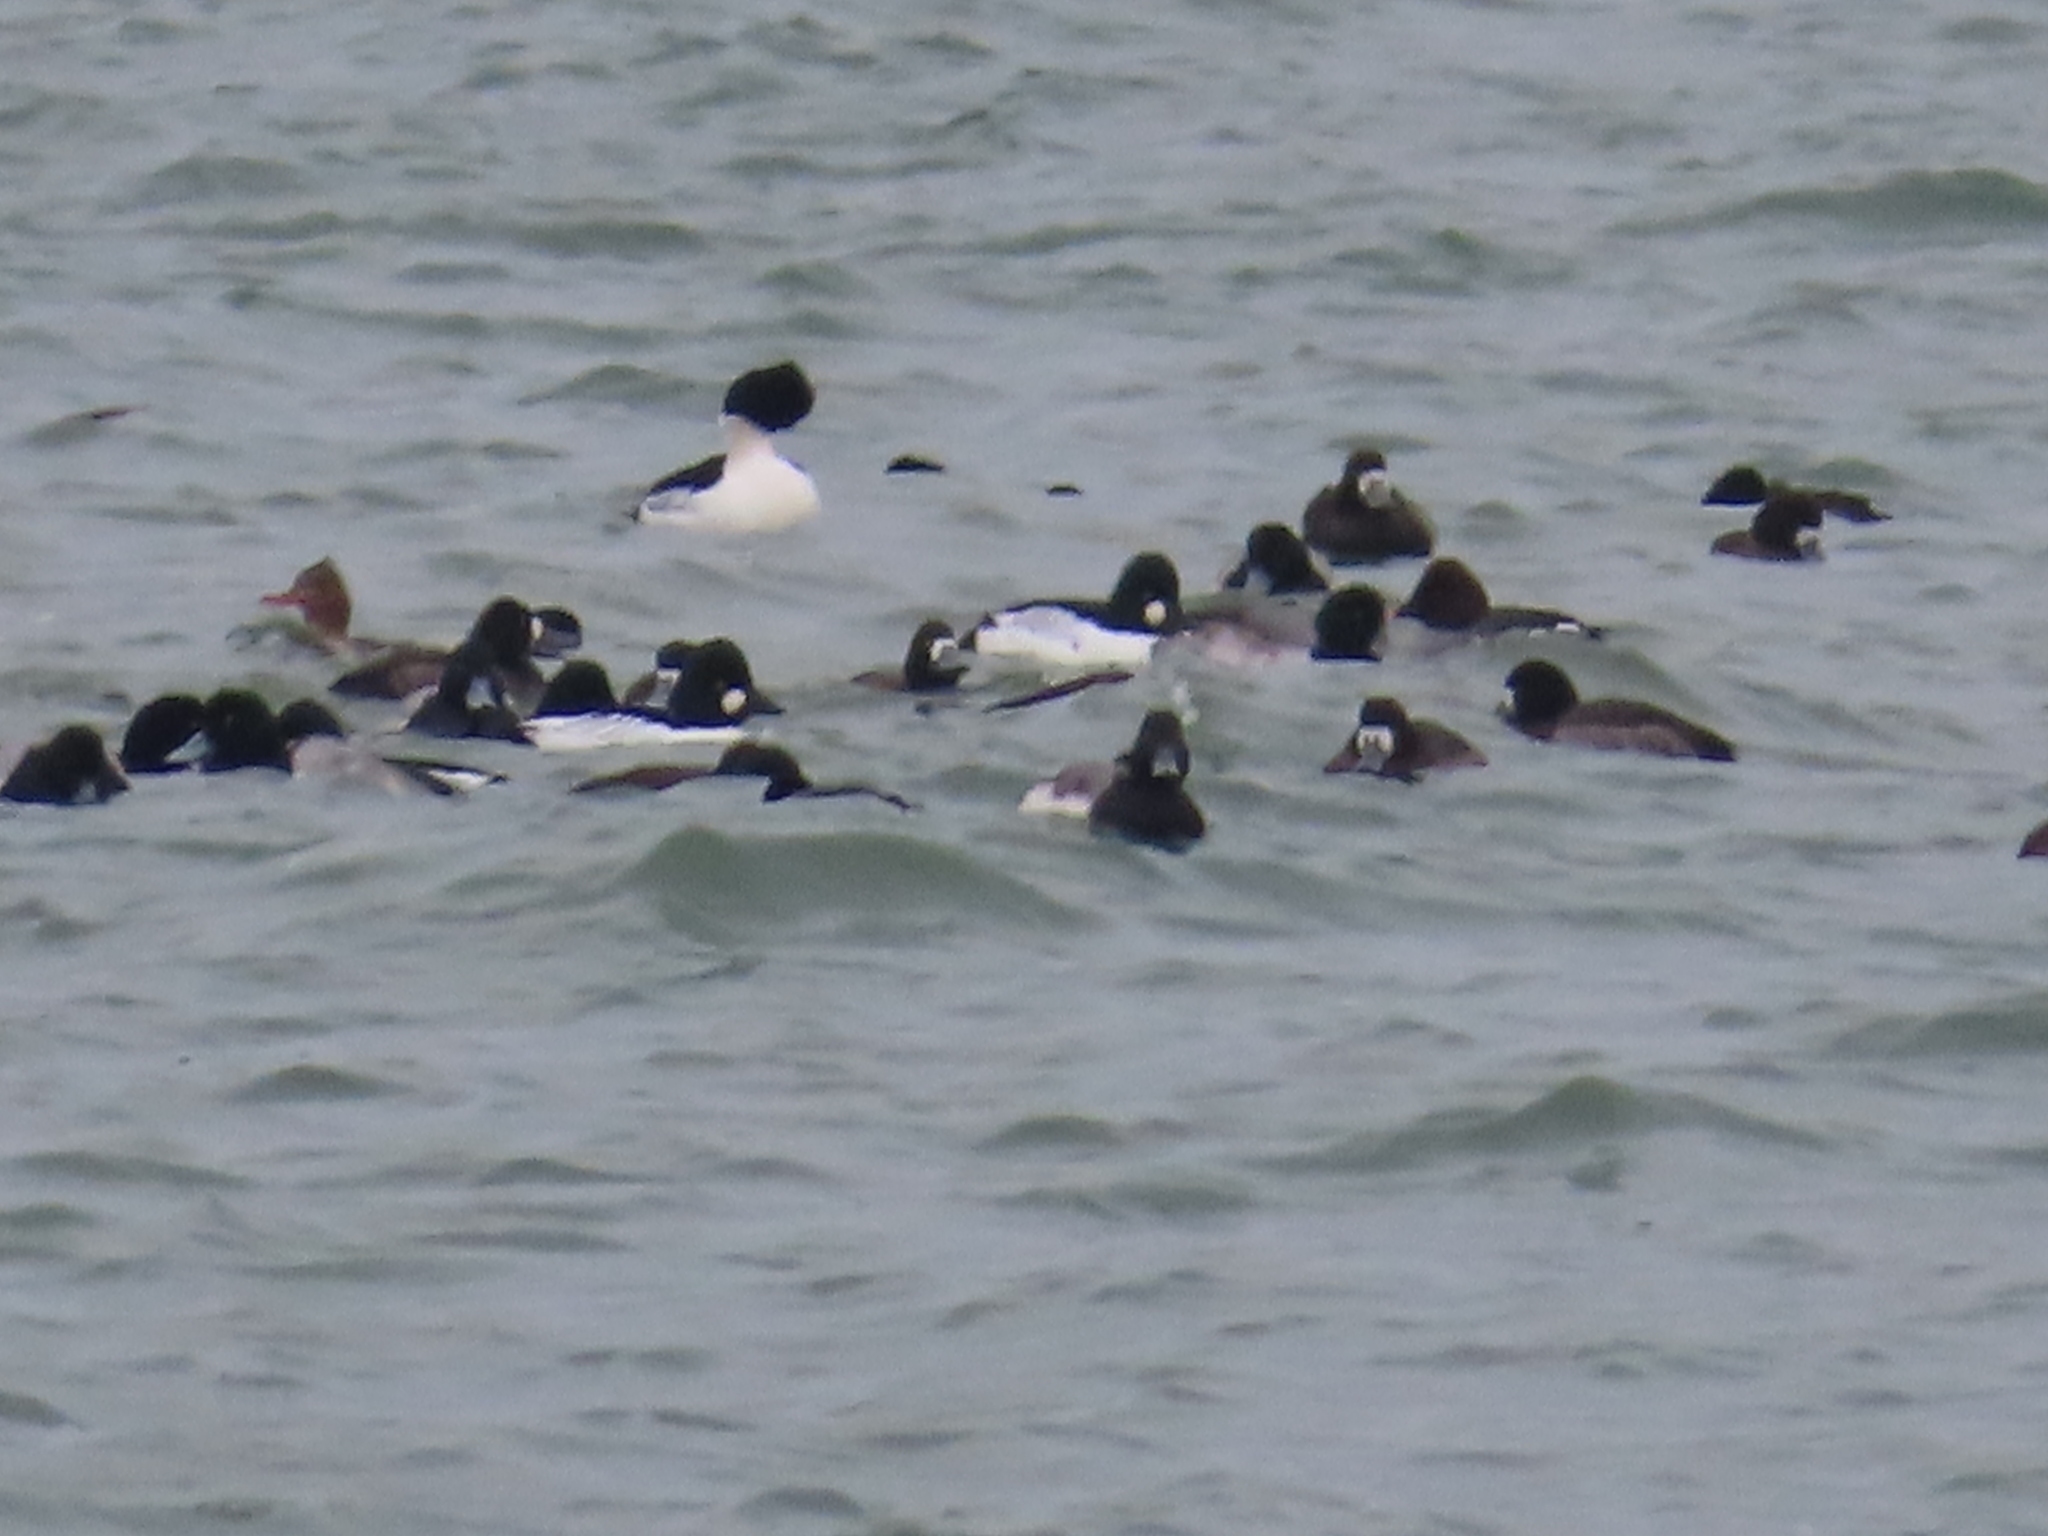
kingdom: Animalia
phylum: Chordata
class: Aves
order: Anseriformes
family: Anatidae
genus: Mergus
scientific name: Mergus merganser
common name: Common merganser
